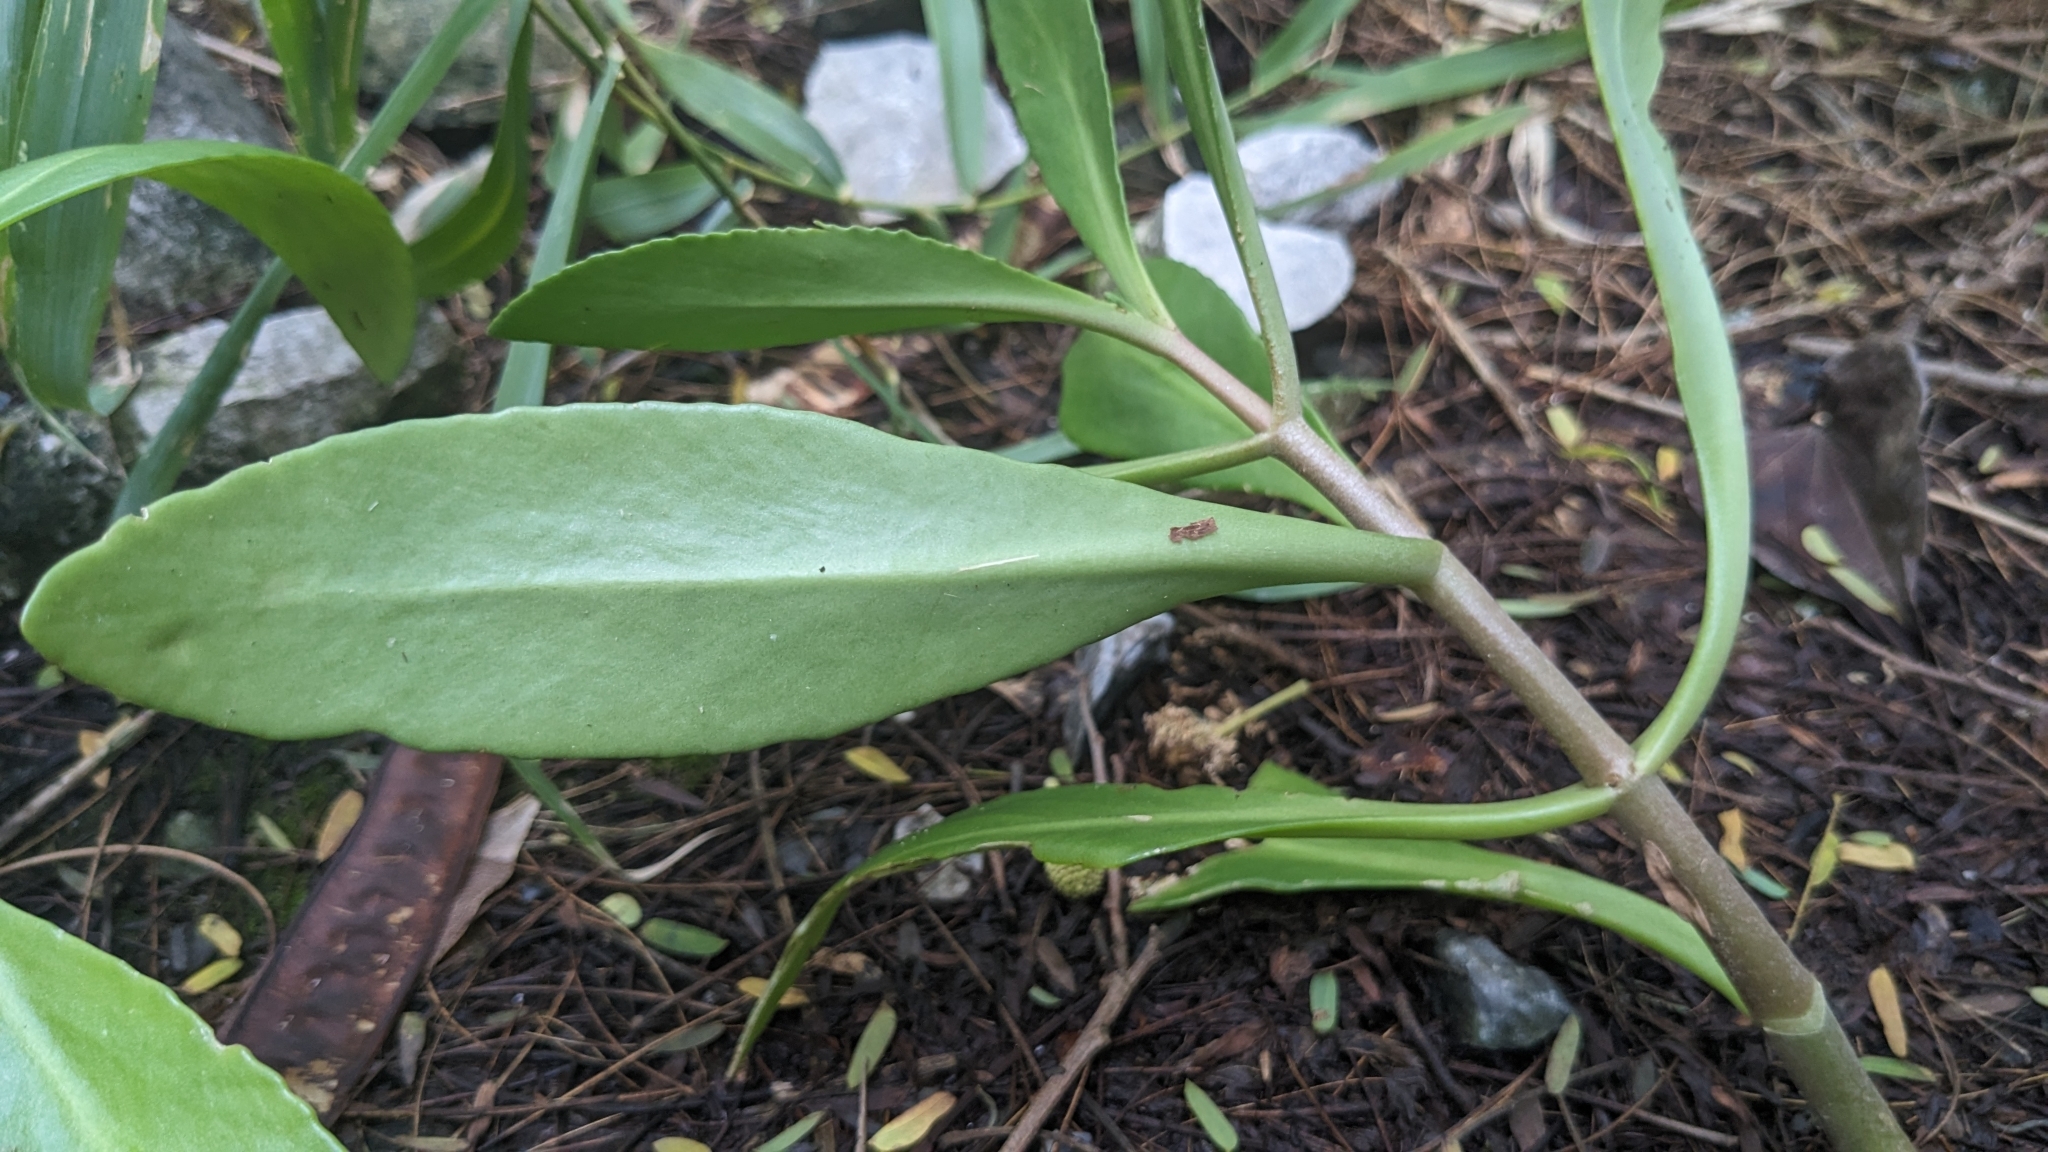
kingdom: Plantae
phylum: Tracheophyta
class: Magnoliopsida
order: Saxifragales
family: Crassulaceae
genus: Kalanchoe
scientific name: Kalanchoe integra
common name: Neverdie
